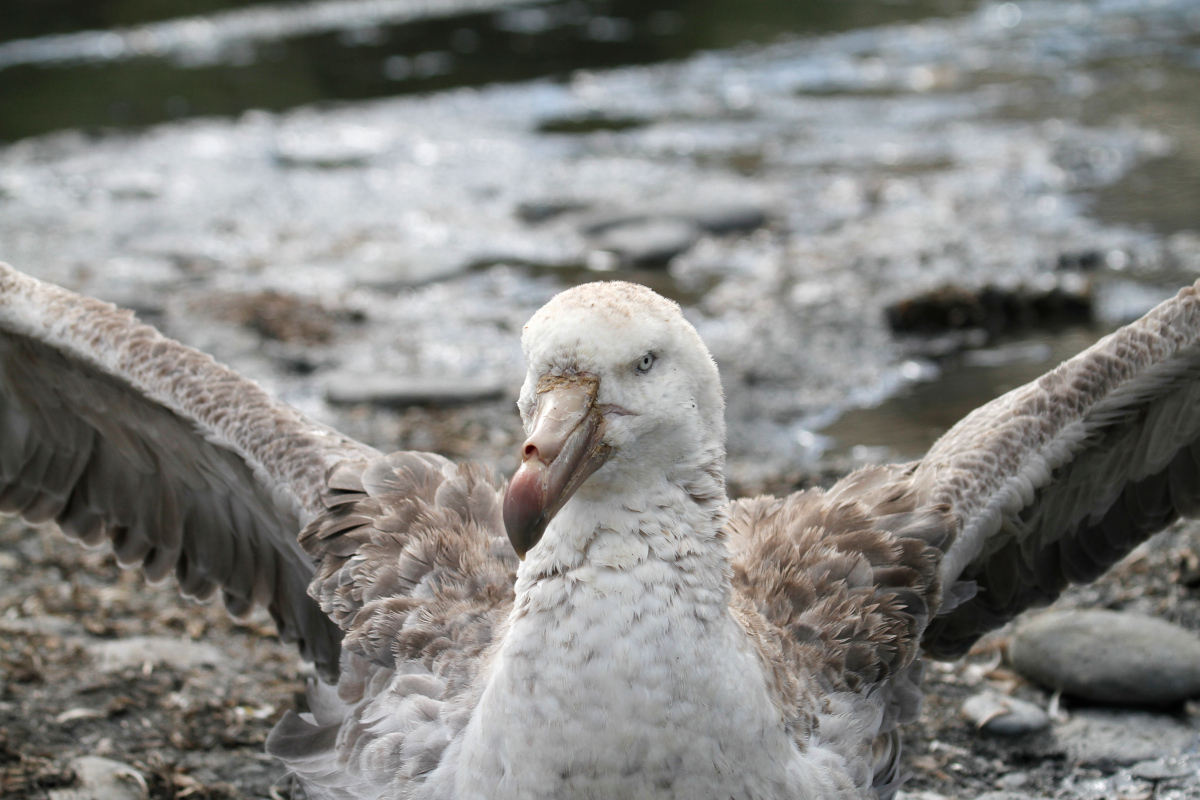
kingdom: Animalia
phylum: Chordata
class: Aves
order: Procellariiformes
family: Procellariidae
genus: Macronectes
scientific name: Macronectes halli
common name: Northern giant petrel
